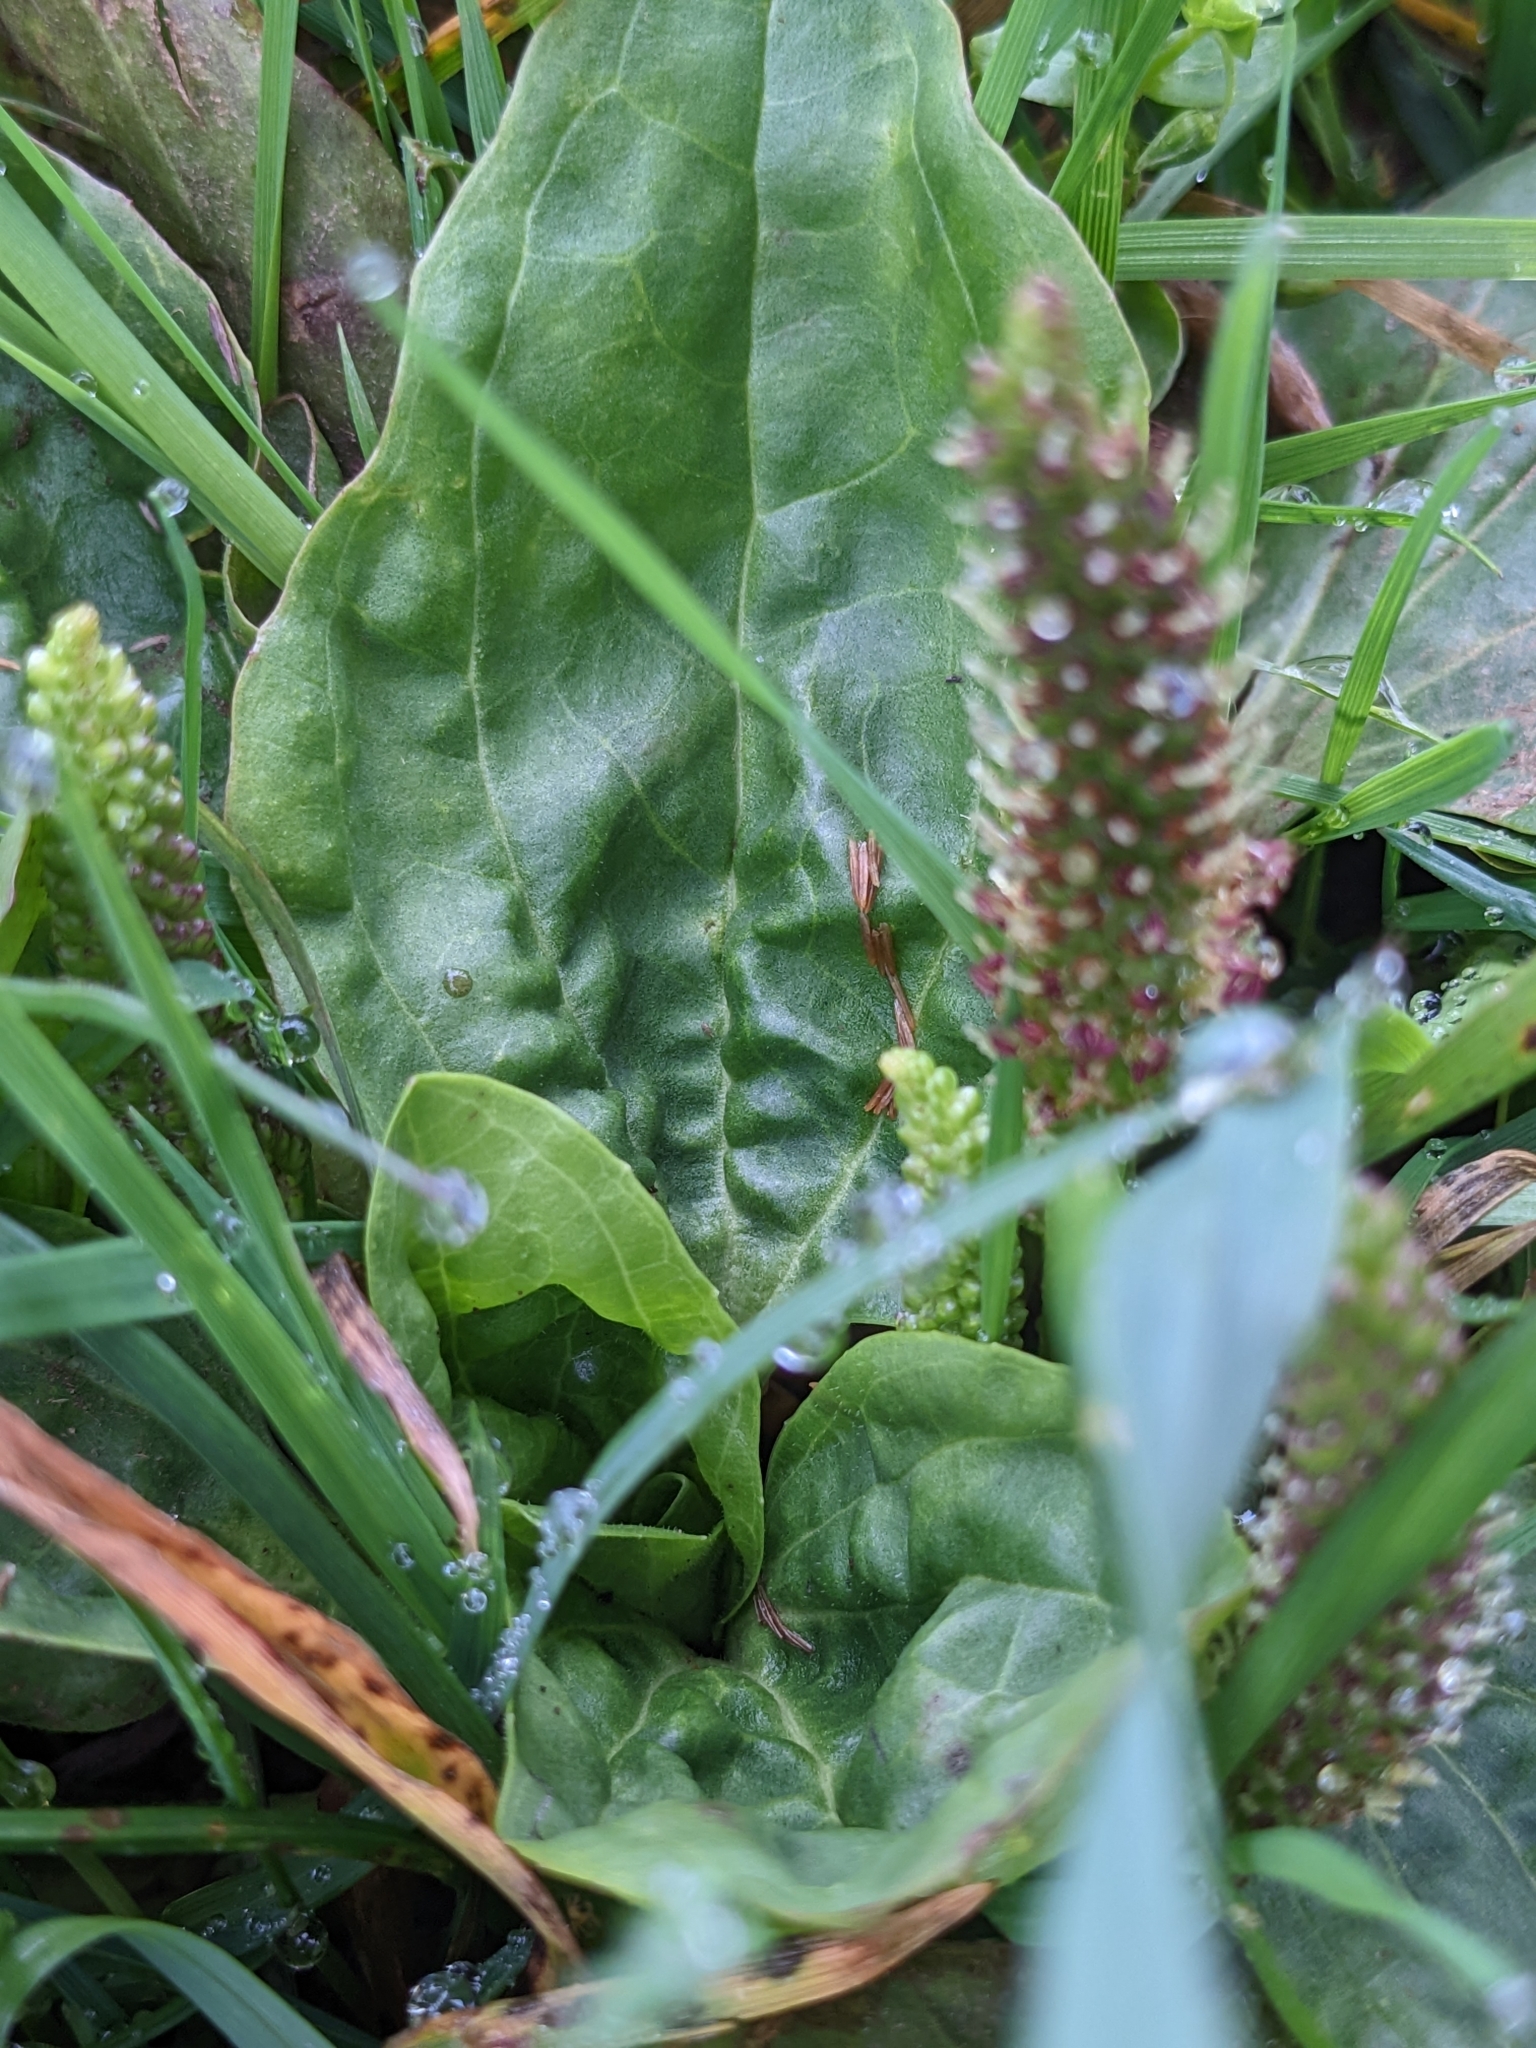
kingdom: Plantae
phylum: Tracheophyta
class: Magnoliopsida
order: Lamiales
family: Plantaginaceae
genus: Plantago
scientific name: Plantago major
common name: Common plantain
